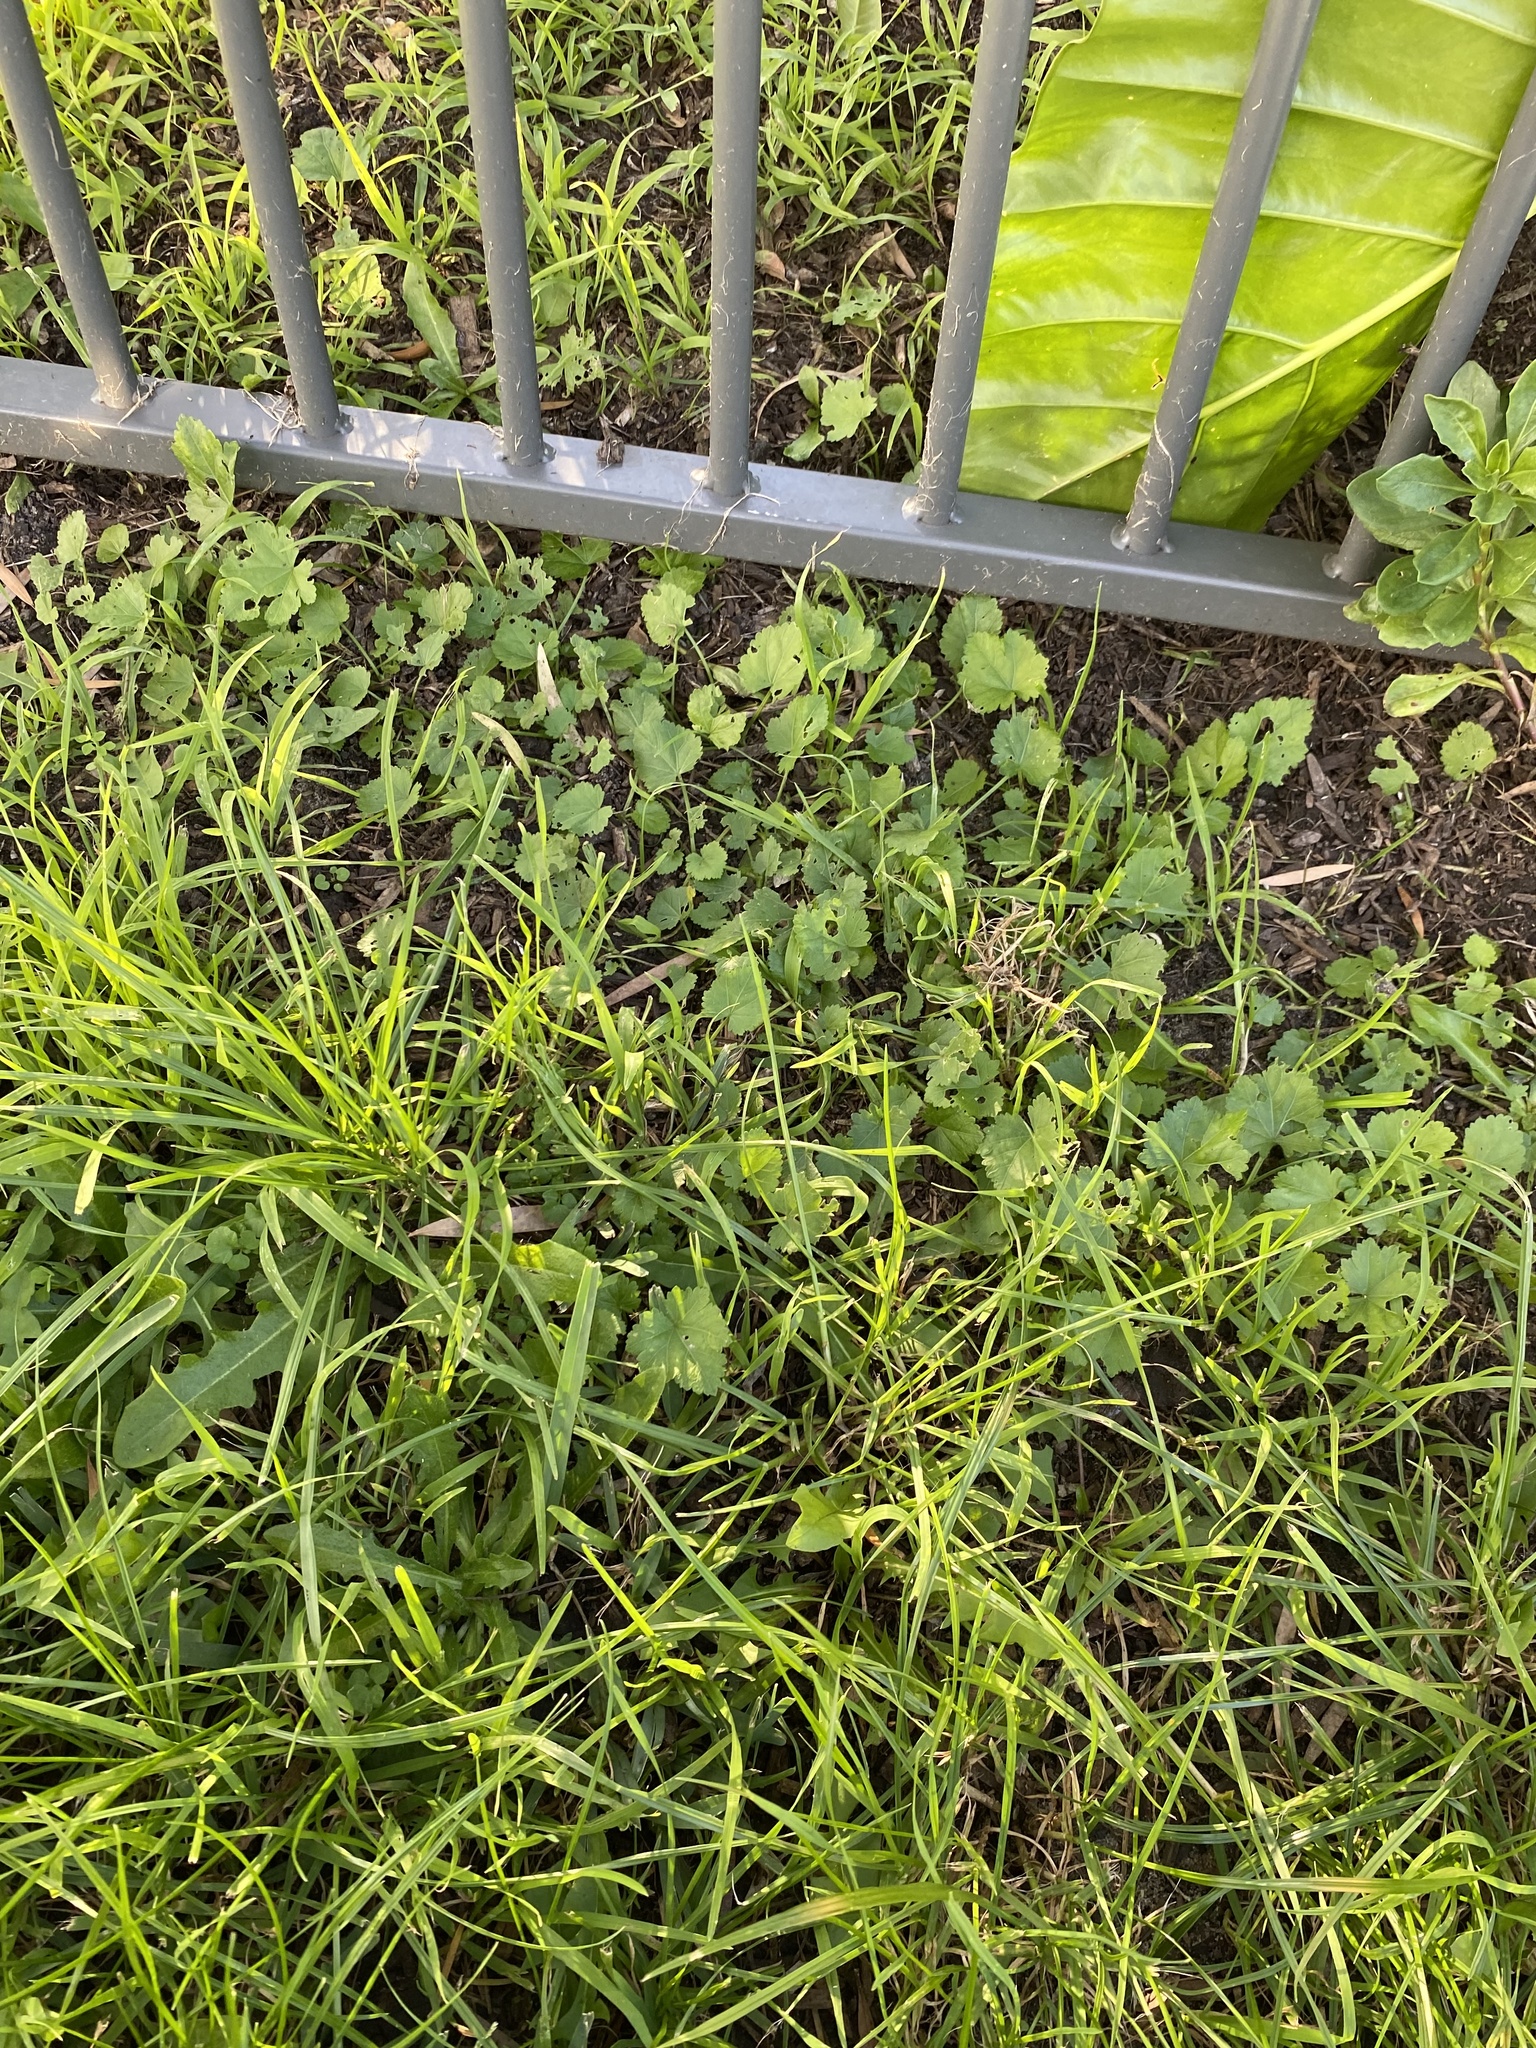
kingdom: Plantae
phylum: Tracheophyta
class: Magnoliopsida
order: Malvales
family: Malvaceae
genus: Modiola
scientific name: Modiola caroliniana
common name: Carolina bristlemallow
